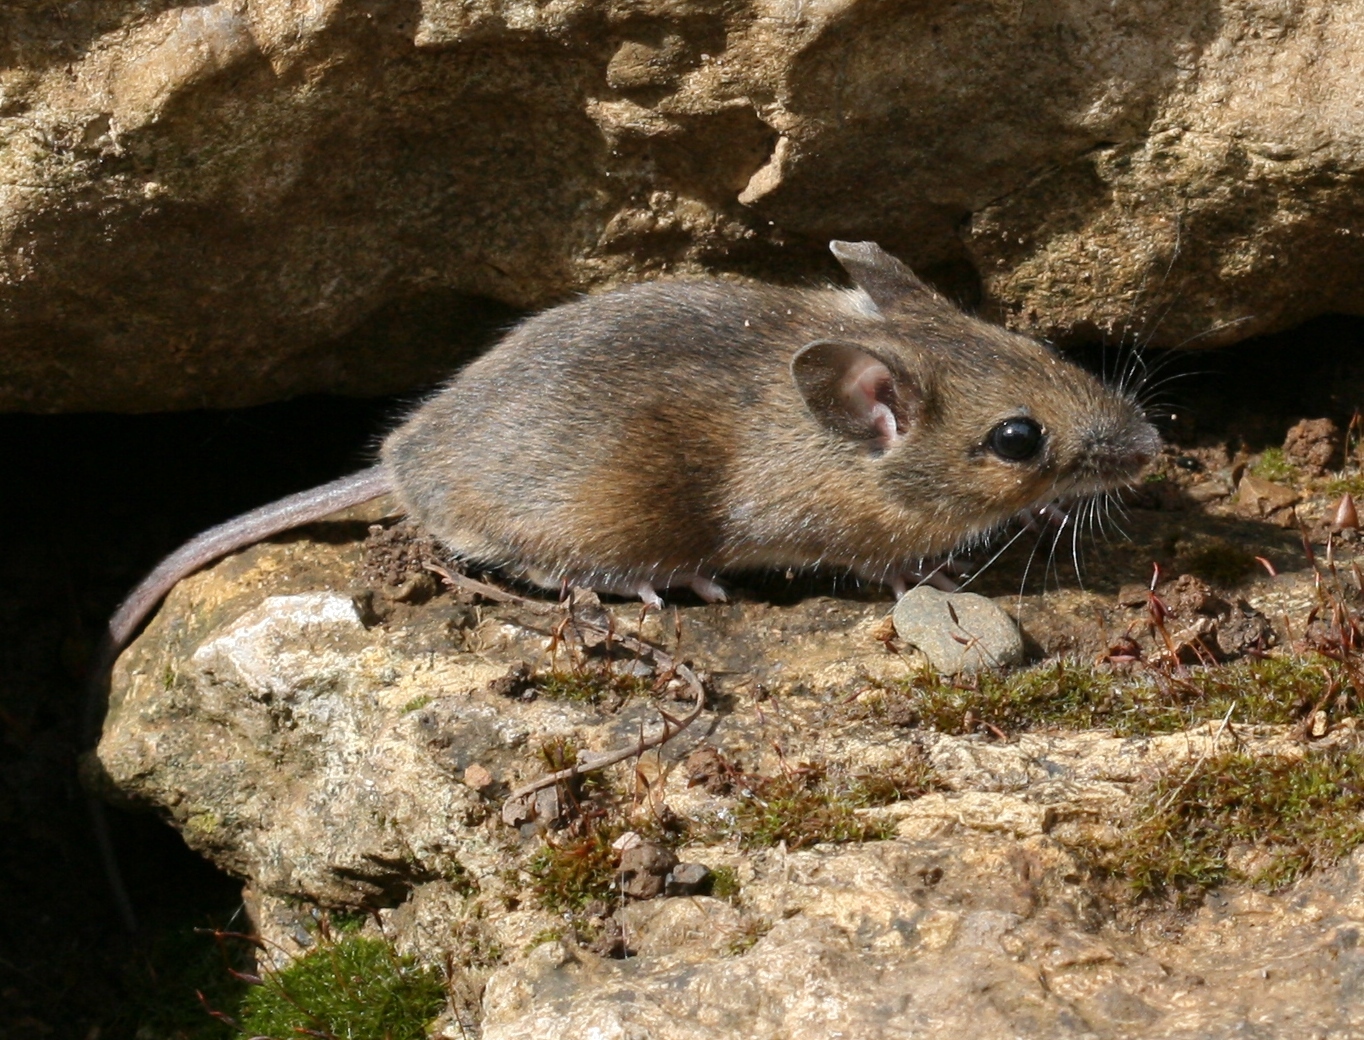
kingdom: Animalia
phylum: Chordata
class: Mammalia
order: Rodentia
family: Muridae
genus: Apodemus
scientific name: Apodemus sylvaticus
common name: Wood mouse
